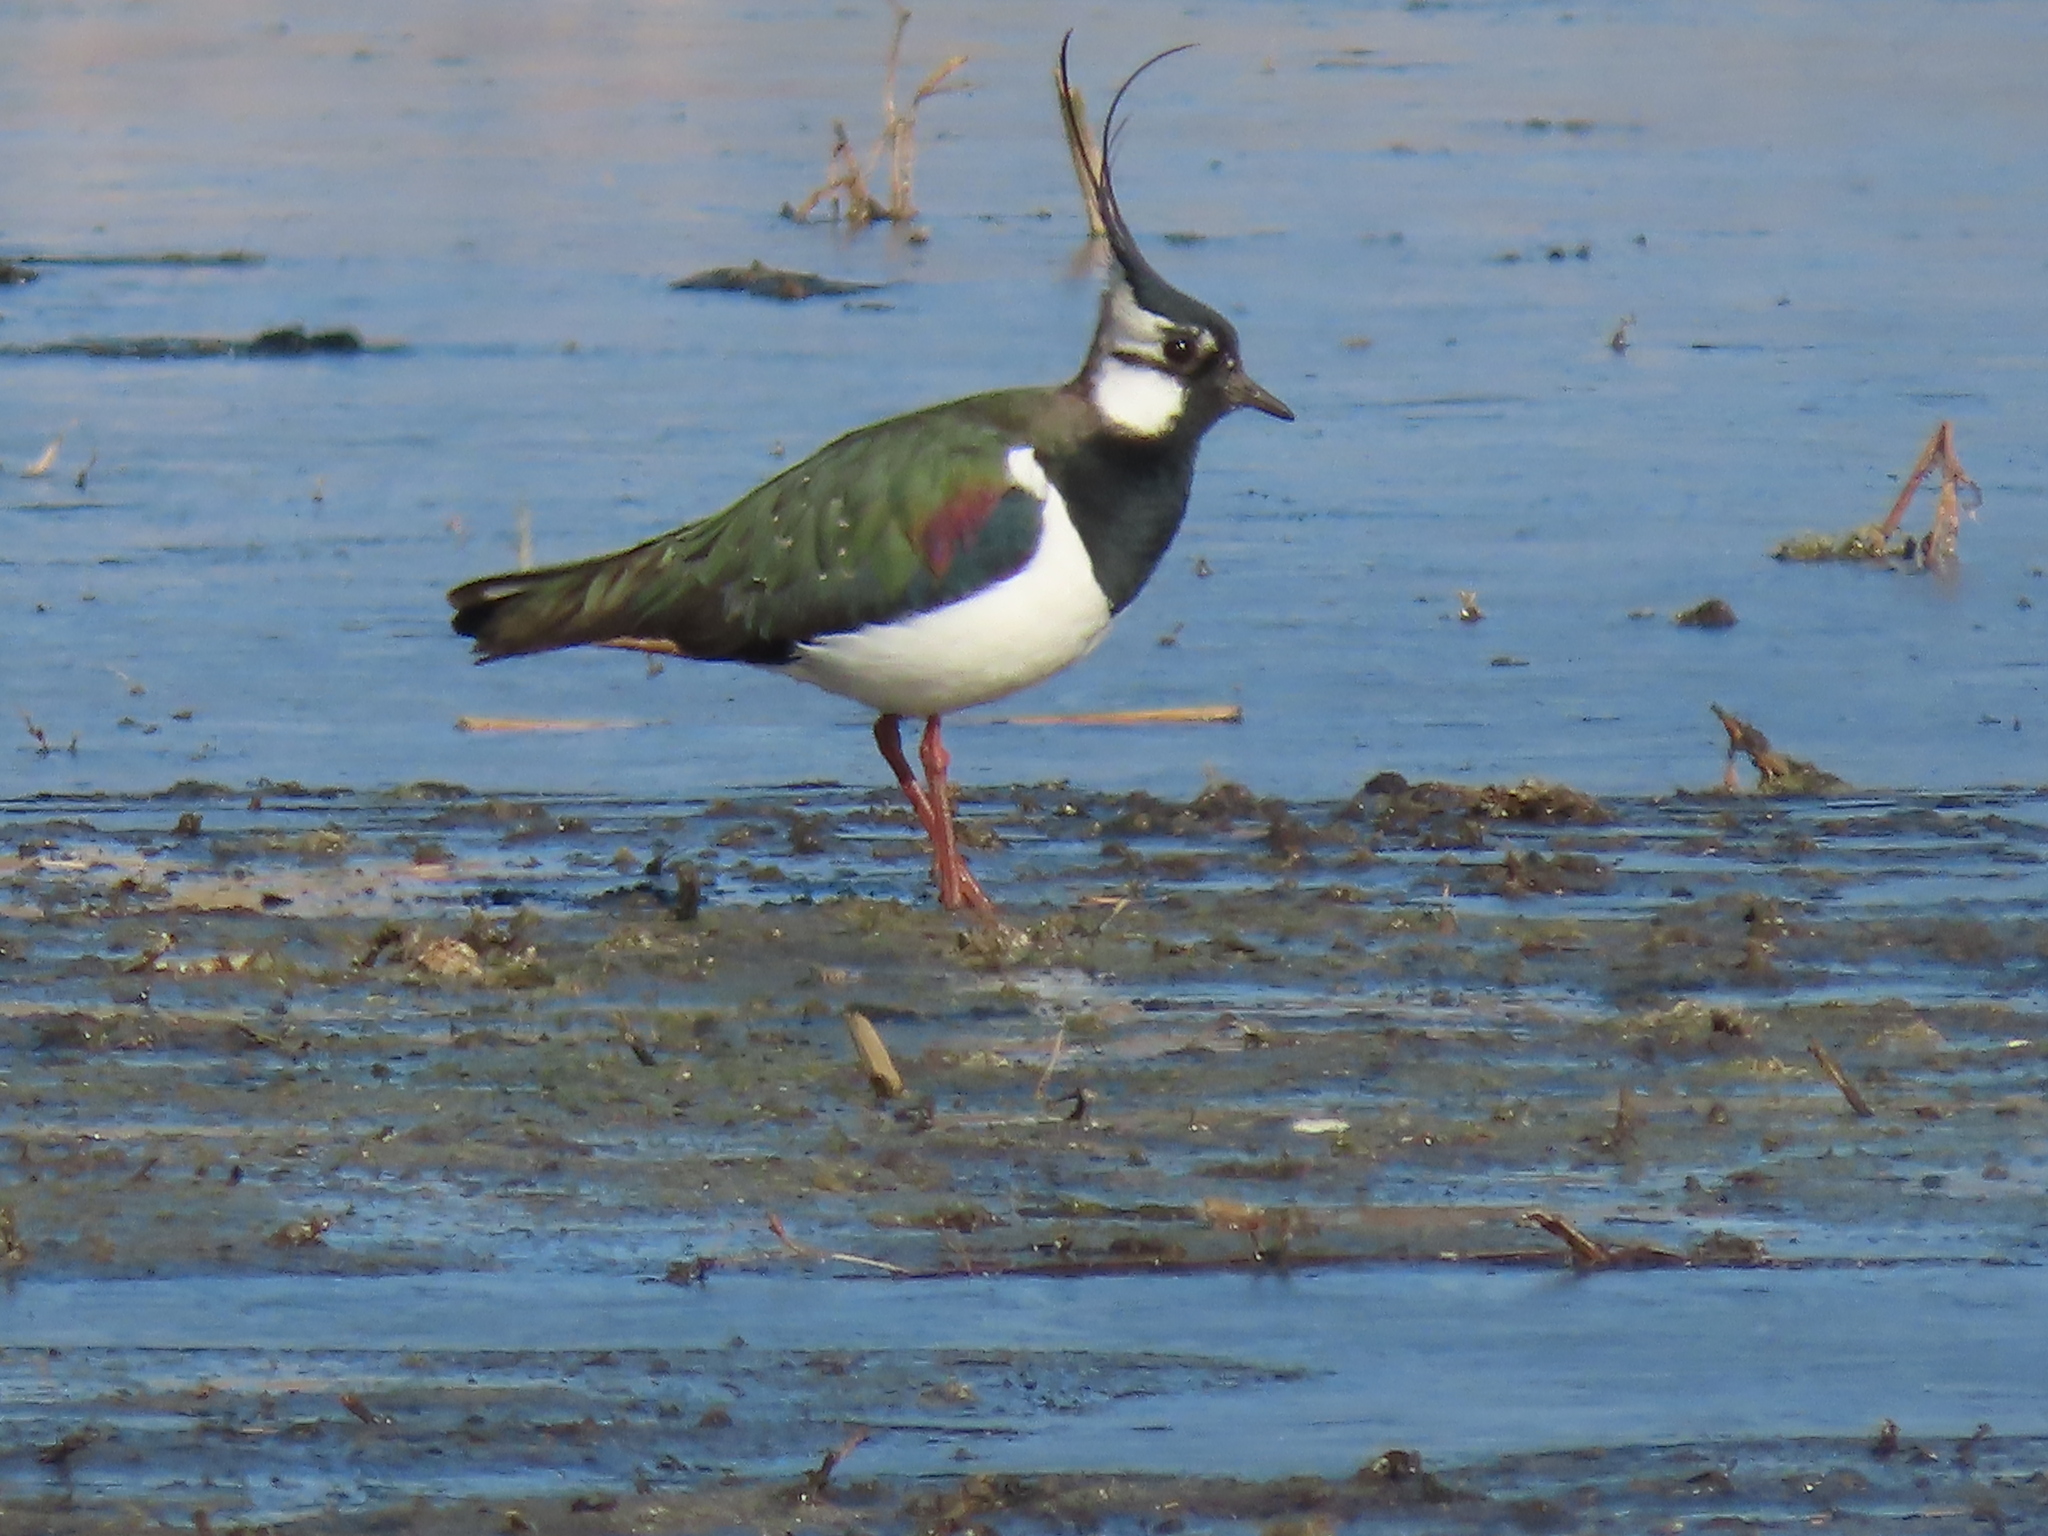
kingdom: Animalia
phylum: Chordata
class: Aves
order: Charadriiformes
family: Charadriidae
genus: Vanellus
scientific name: Vanellus vanellus
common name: Northern lapwing
